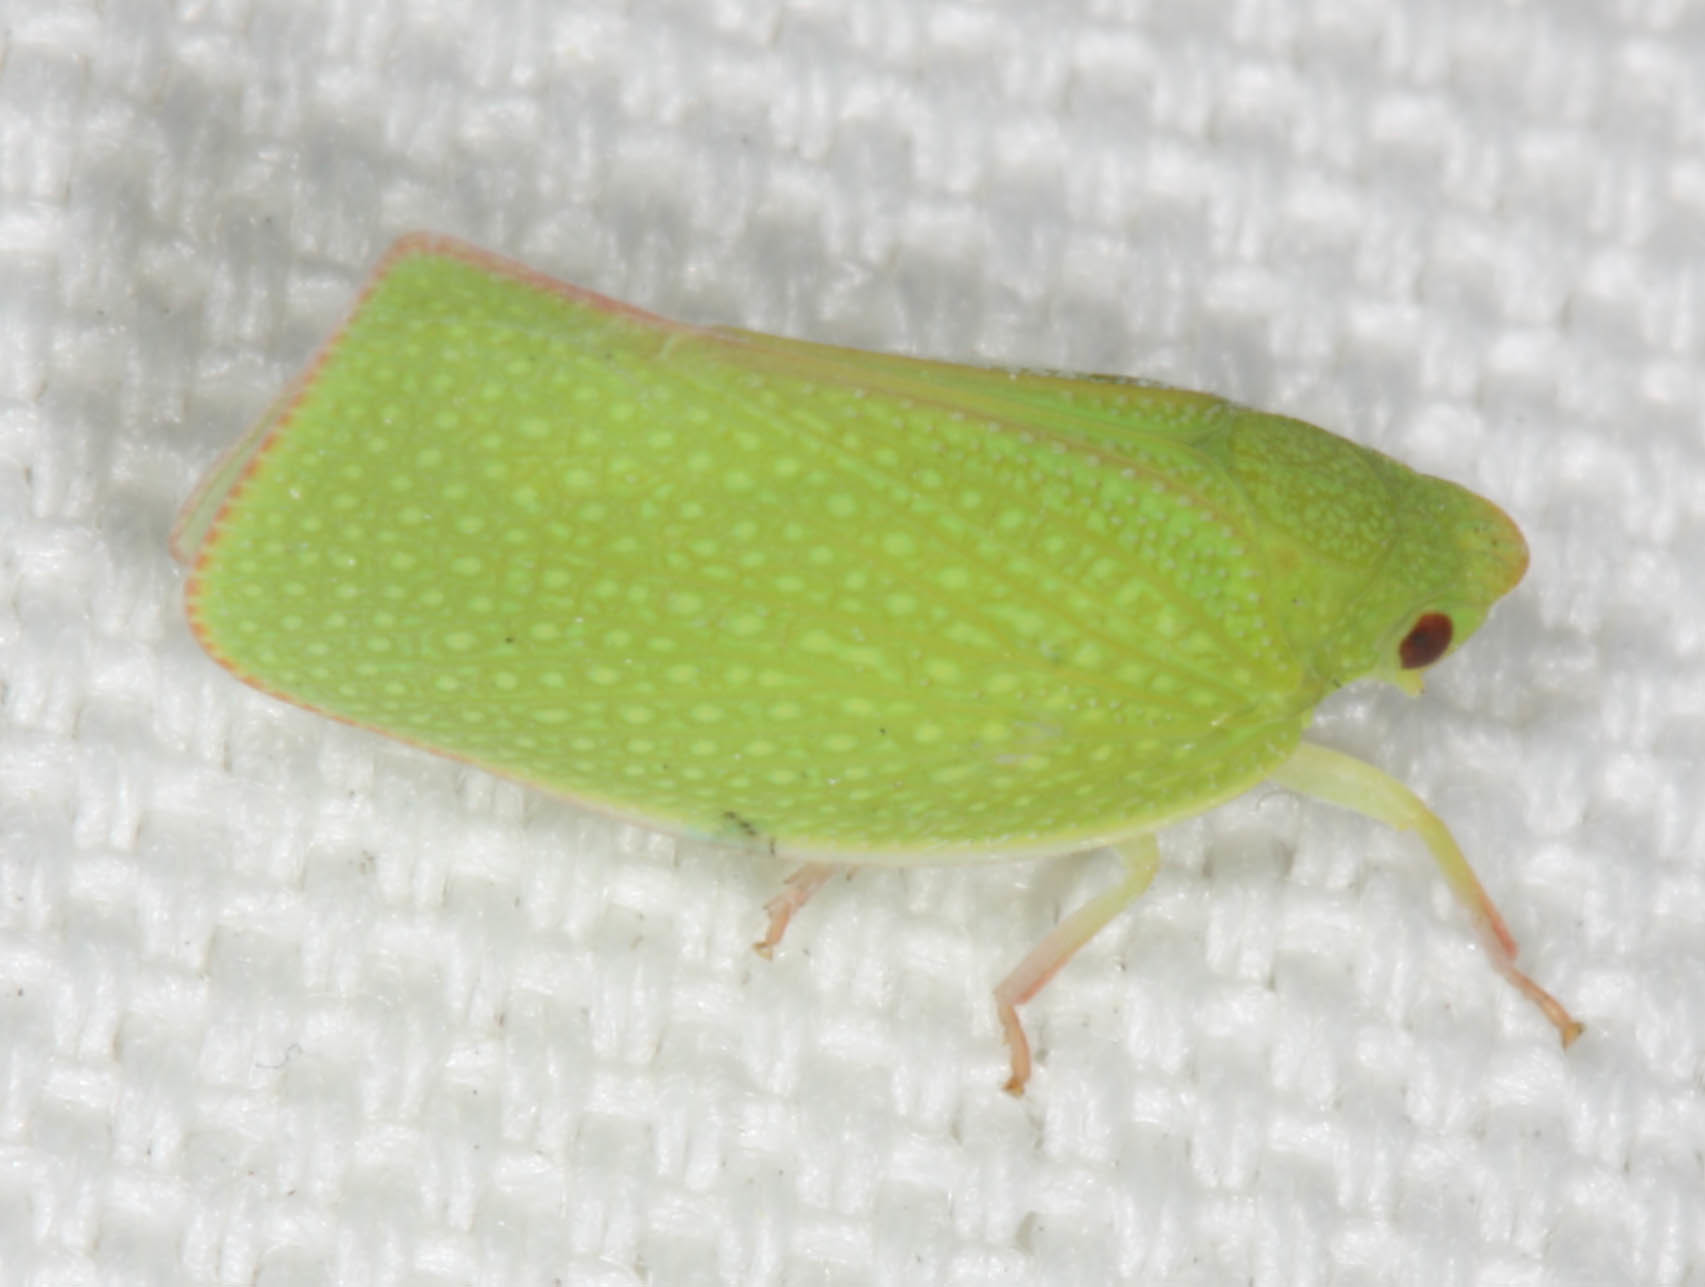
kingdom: Animalia
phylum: Arthropoda
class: Insecta
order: Hemiptera
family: Flatidae
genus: Siphanta
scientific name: Siphanta acuta
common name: Torpedo bug
